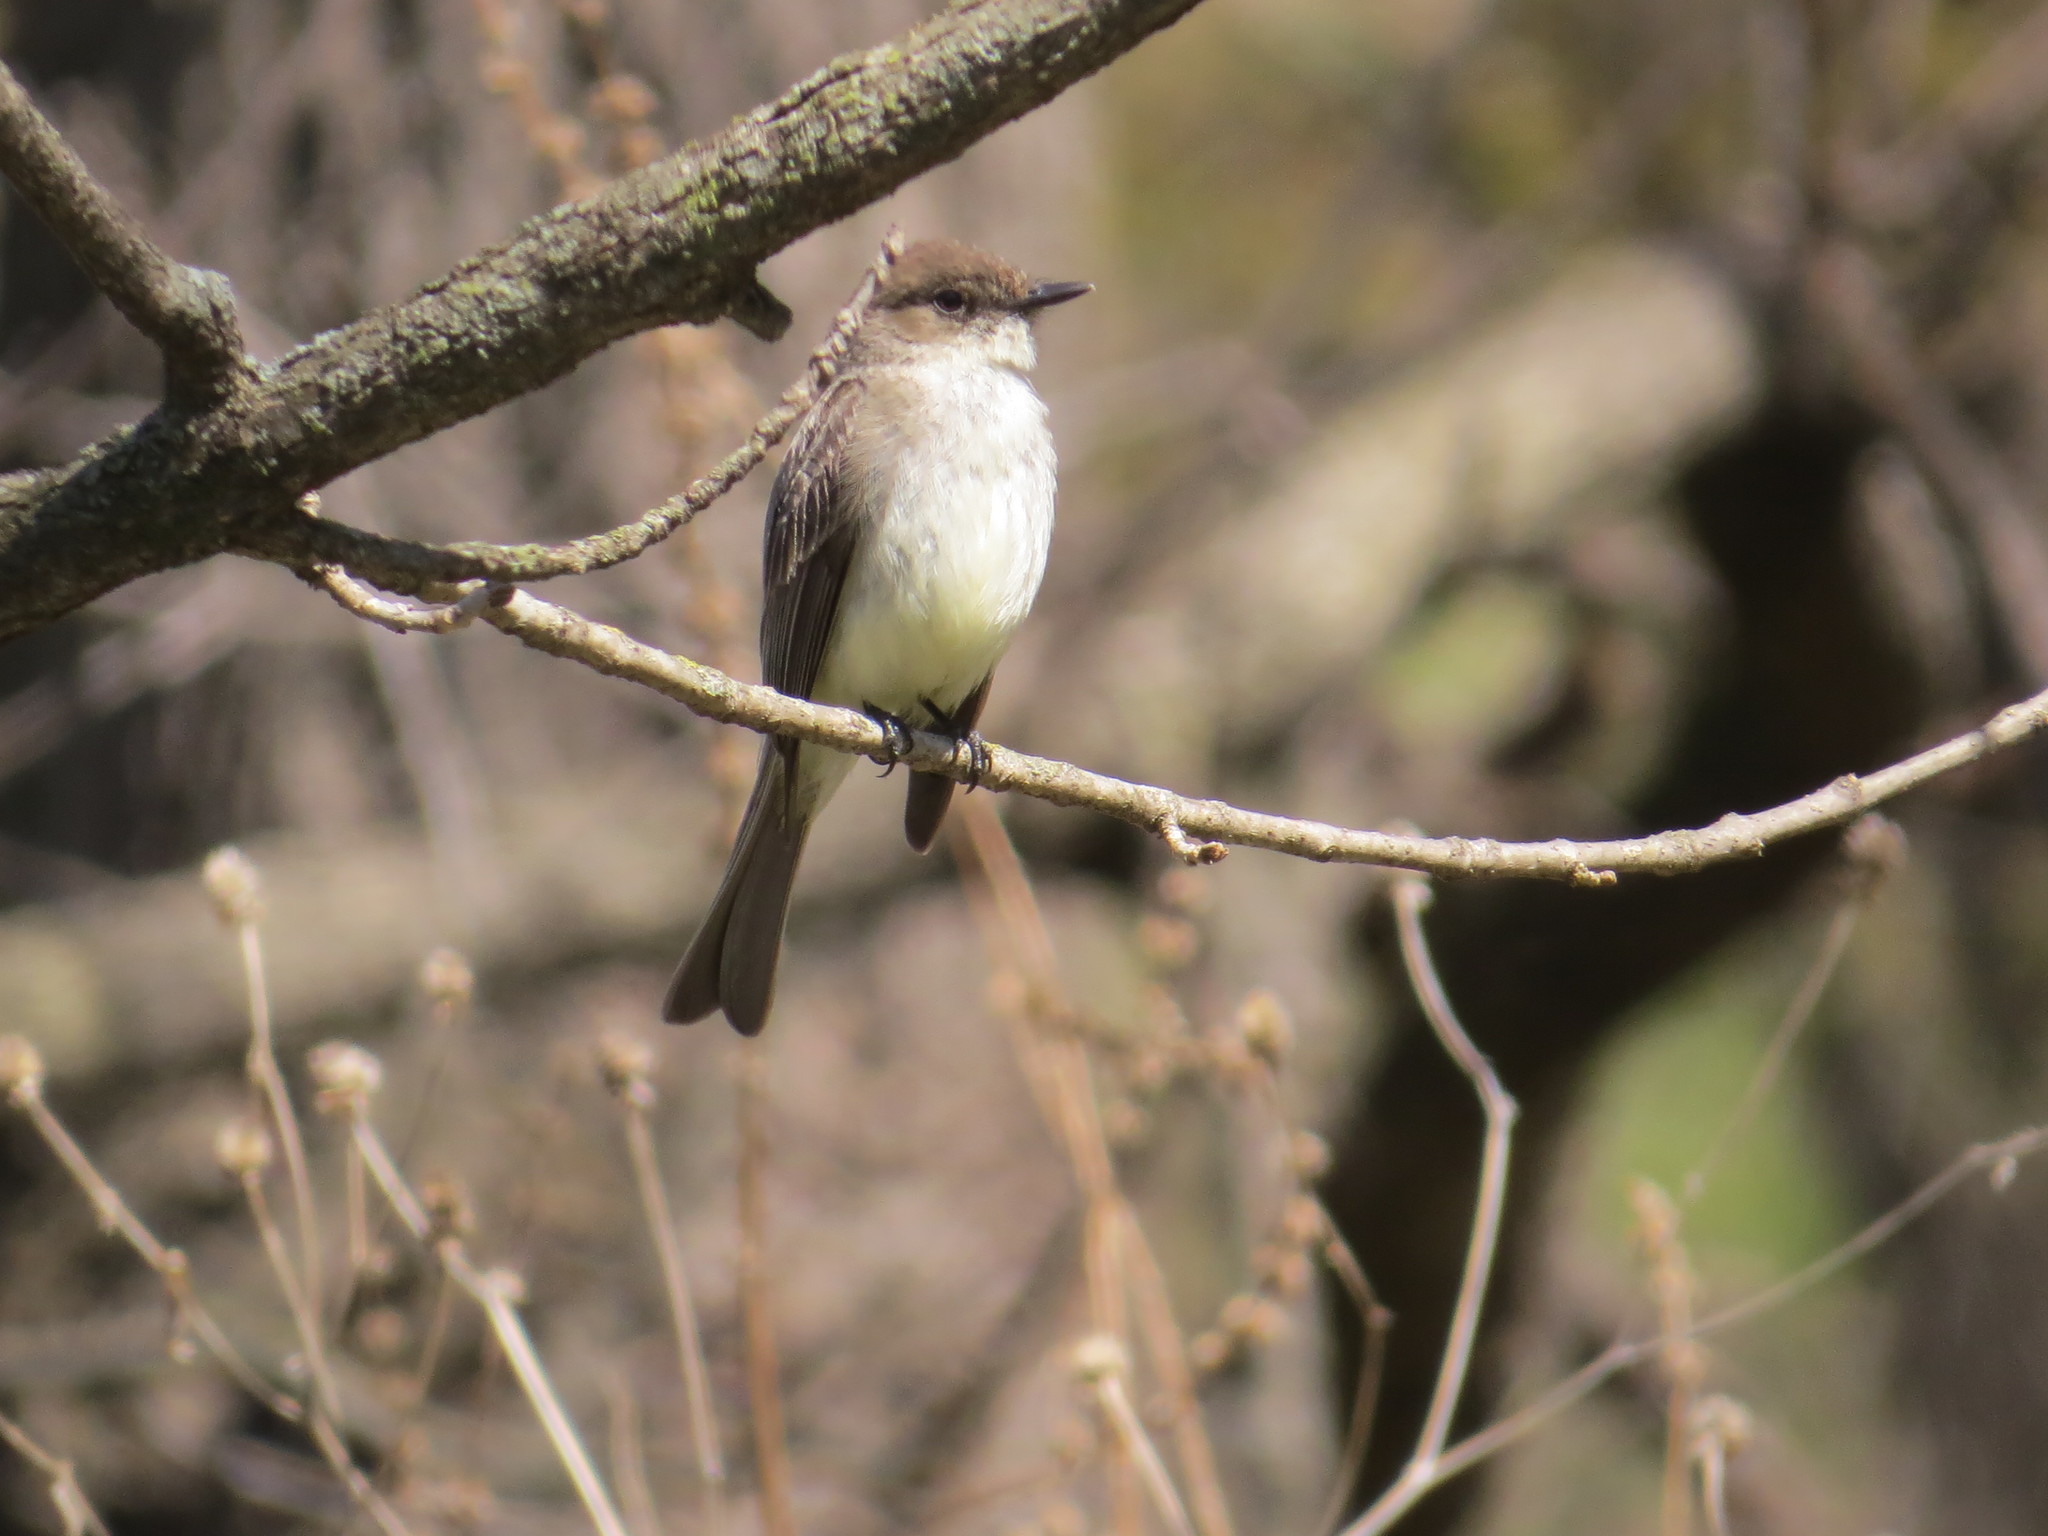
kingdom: Animalia
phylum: Chordata
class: Aves
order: Passeriformes
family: Tyrannidae
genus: Sayornis
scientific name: Sayornis phoebe
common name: Eastern phoebe
